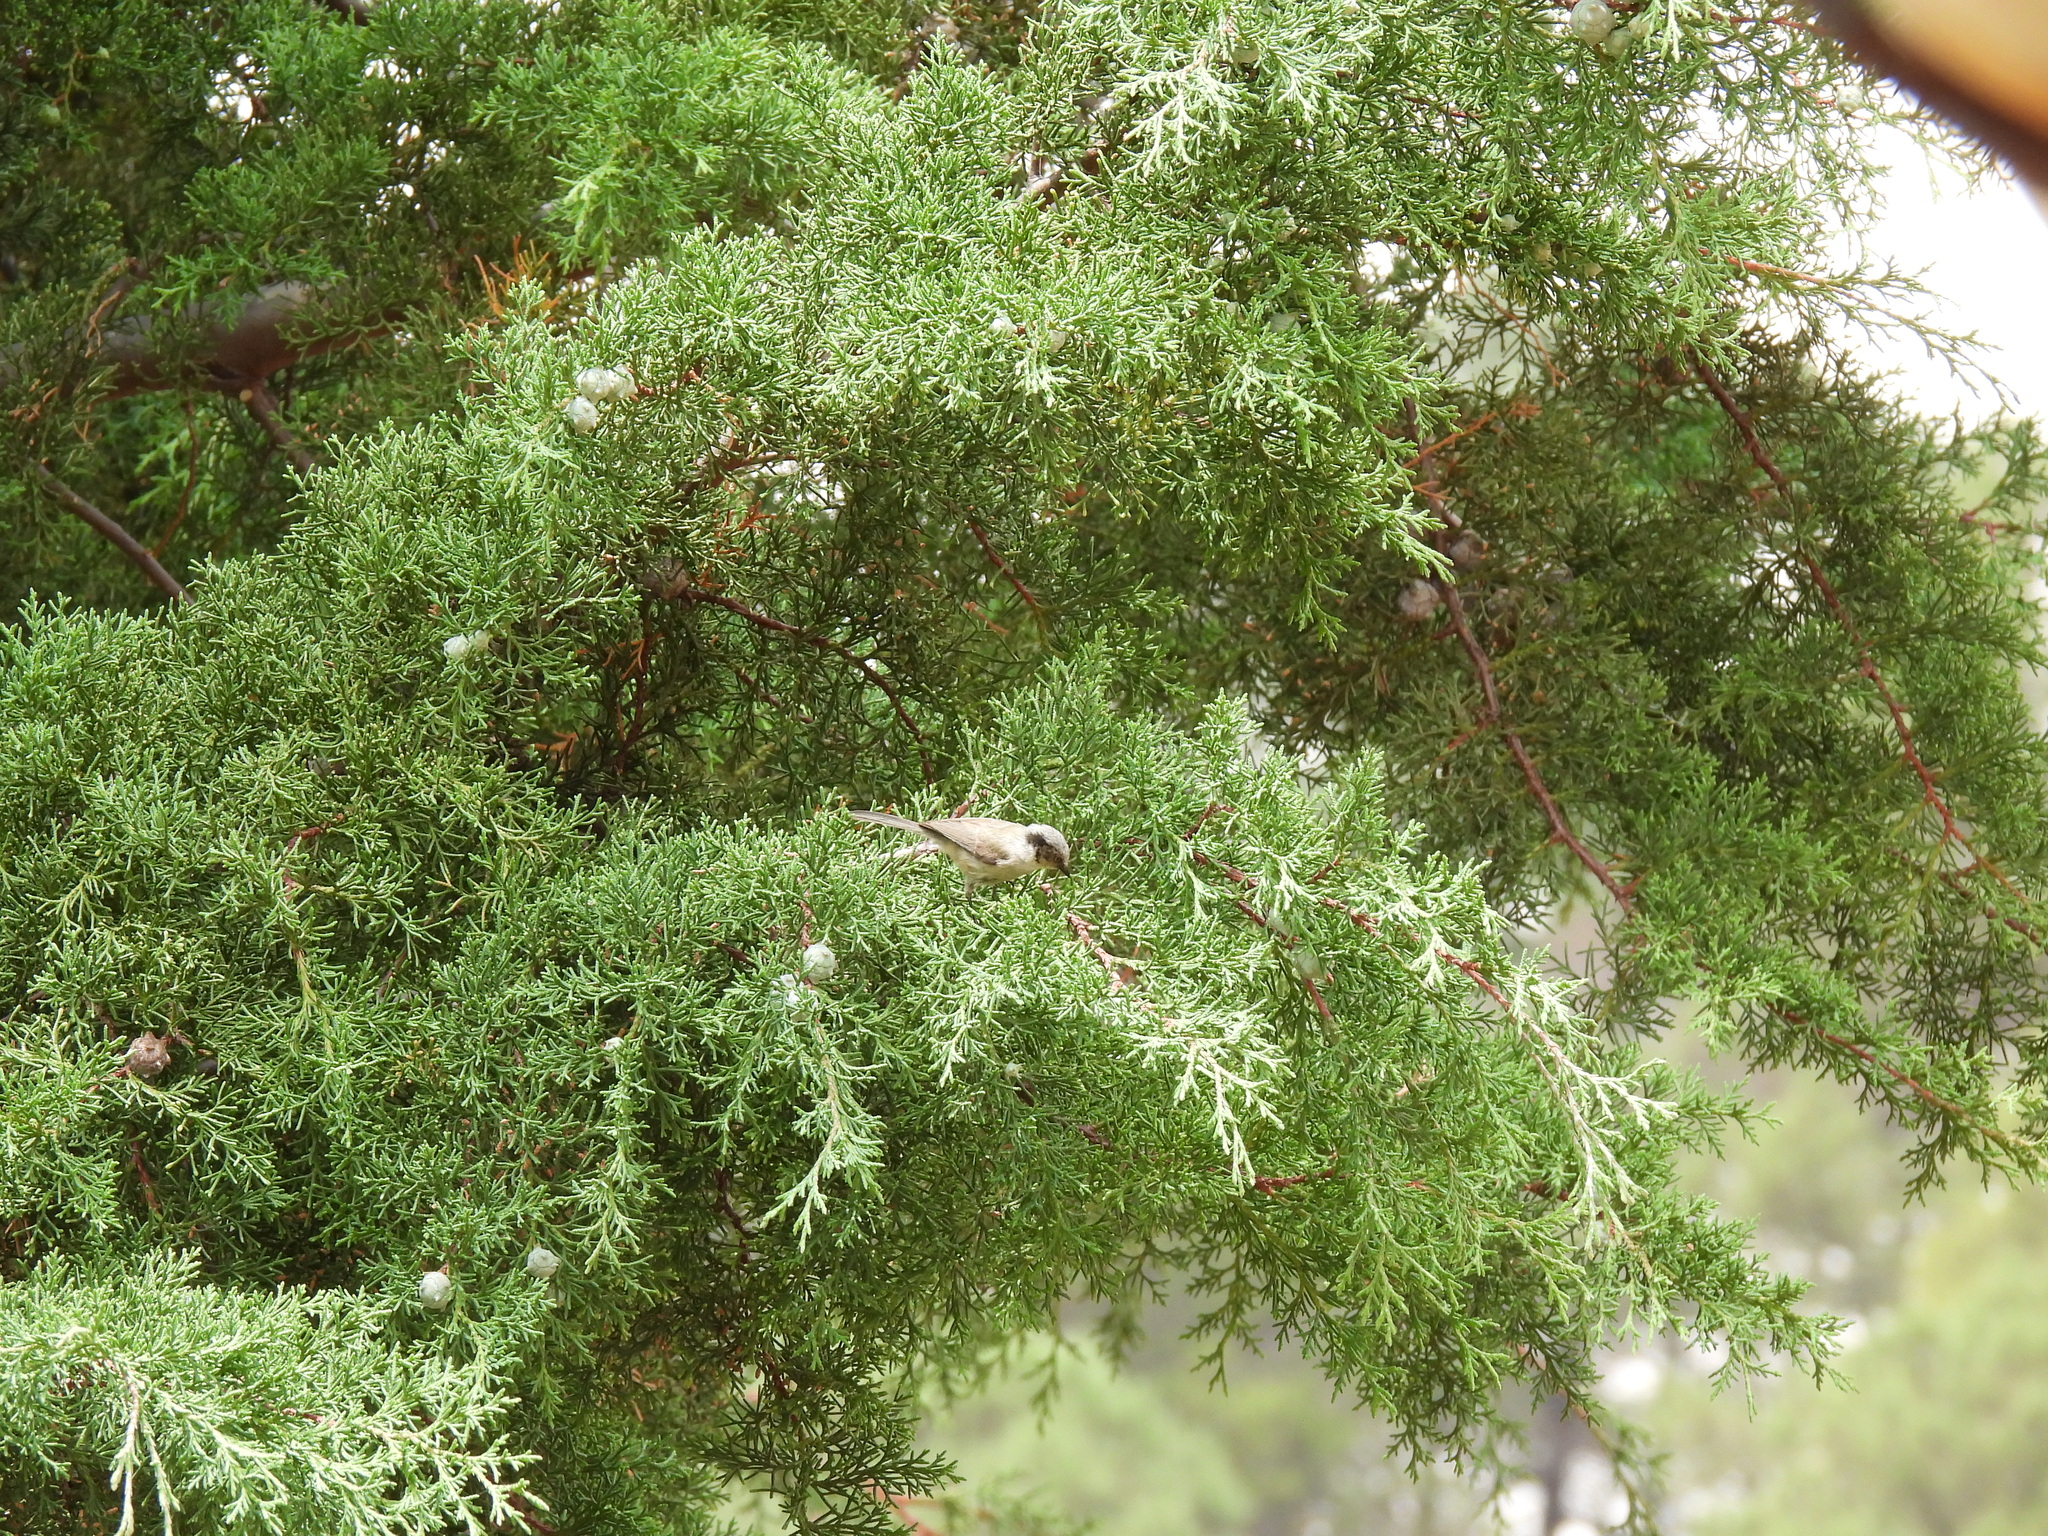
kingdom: Animalia
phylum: Chordata
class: Aves
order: Passeriformes
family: Aegithalidae
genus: Psaltriparus
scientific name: Psaltriparus minimus
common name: American bushtit
